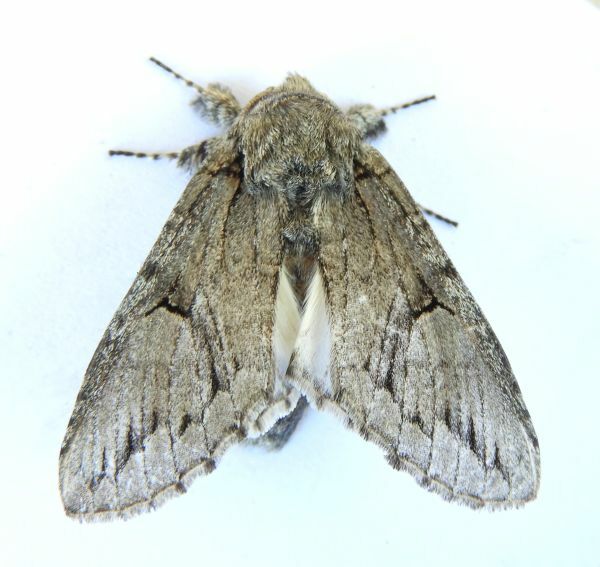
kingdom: Animalia
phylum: Arthropoda
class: Insecta
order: Lepidoptera
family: Notodontidae
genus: Heterocampa
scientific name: Heterocampa averna
